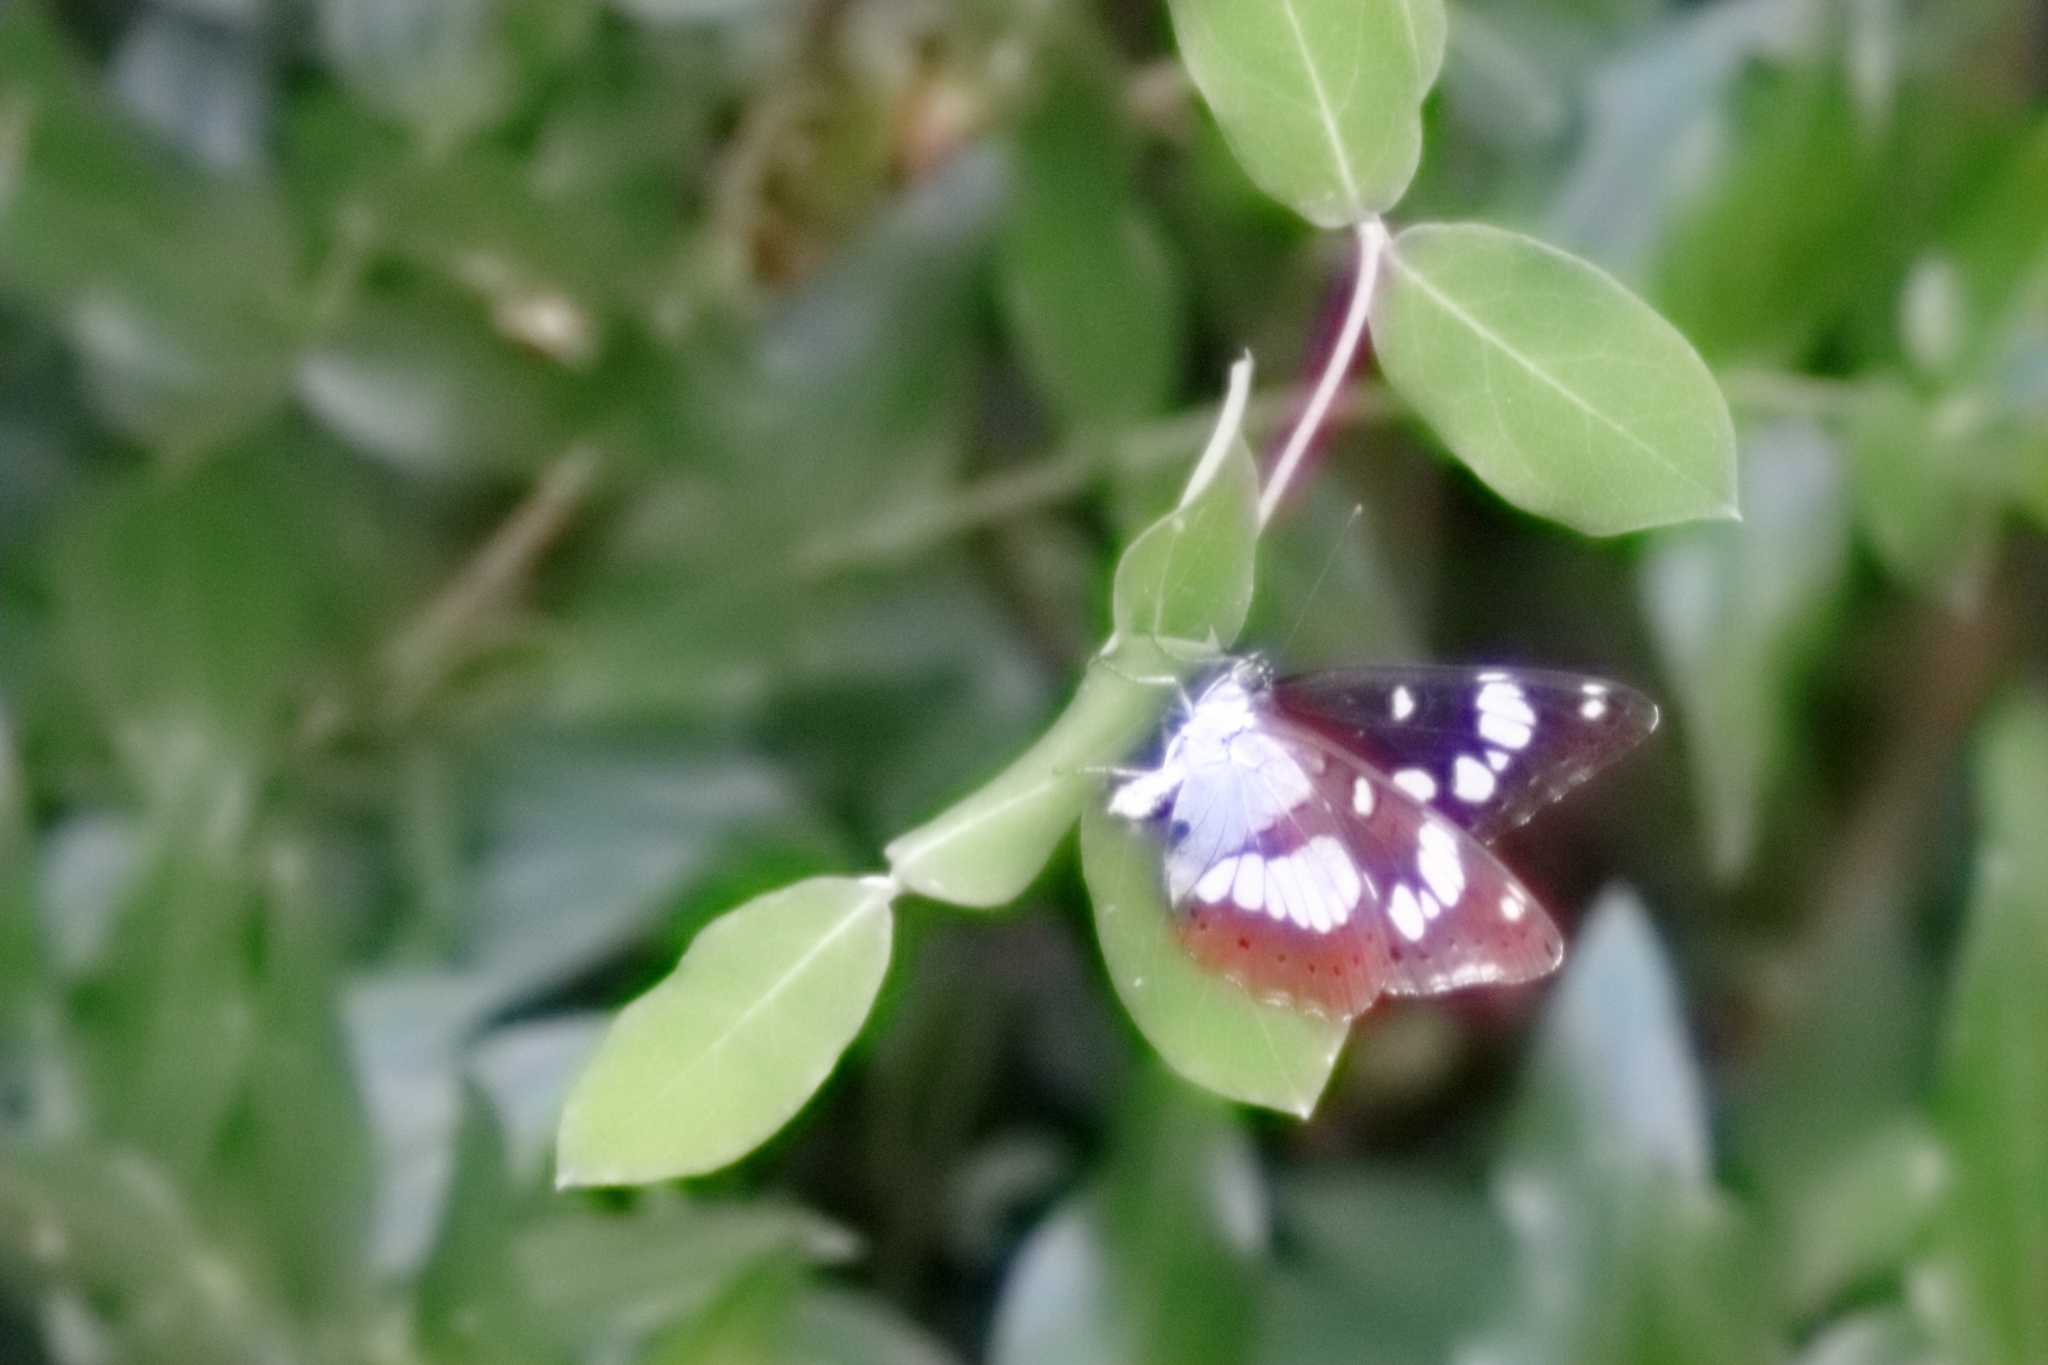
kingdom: Animalia
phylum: Arthropoda
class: Insecta
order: Lepidoptera
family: Nymphalidae
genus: Limenitis
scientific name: Limenitis reducta
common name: Southern white admiral
